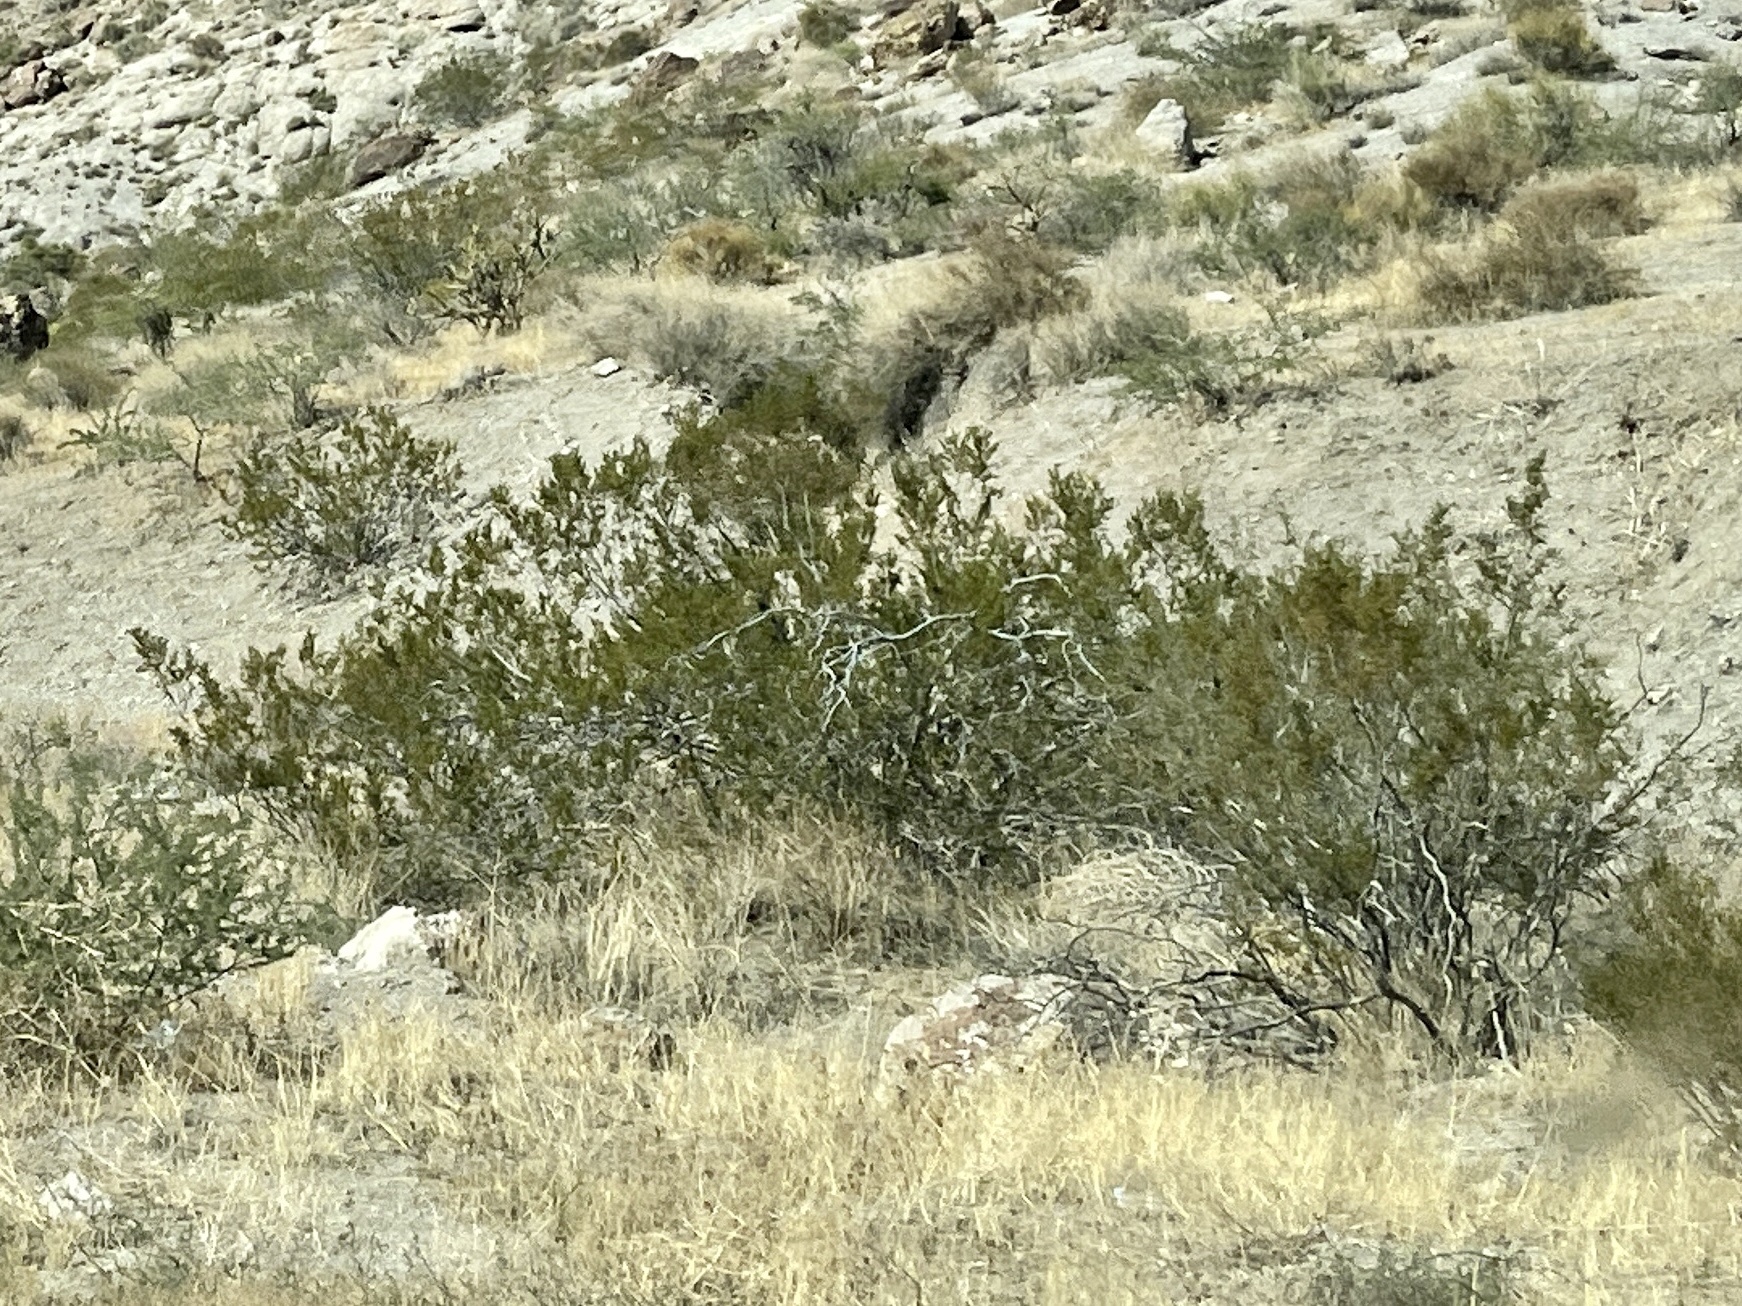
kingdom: Plantae
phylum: Tracheophyta
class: Magnoliopsida
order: Zygophyllales
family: Zygophyllaceae
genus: Larrea
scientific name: Larrea tridentata
